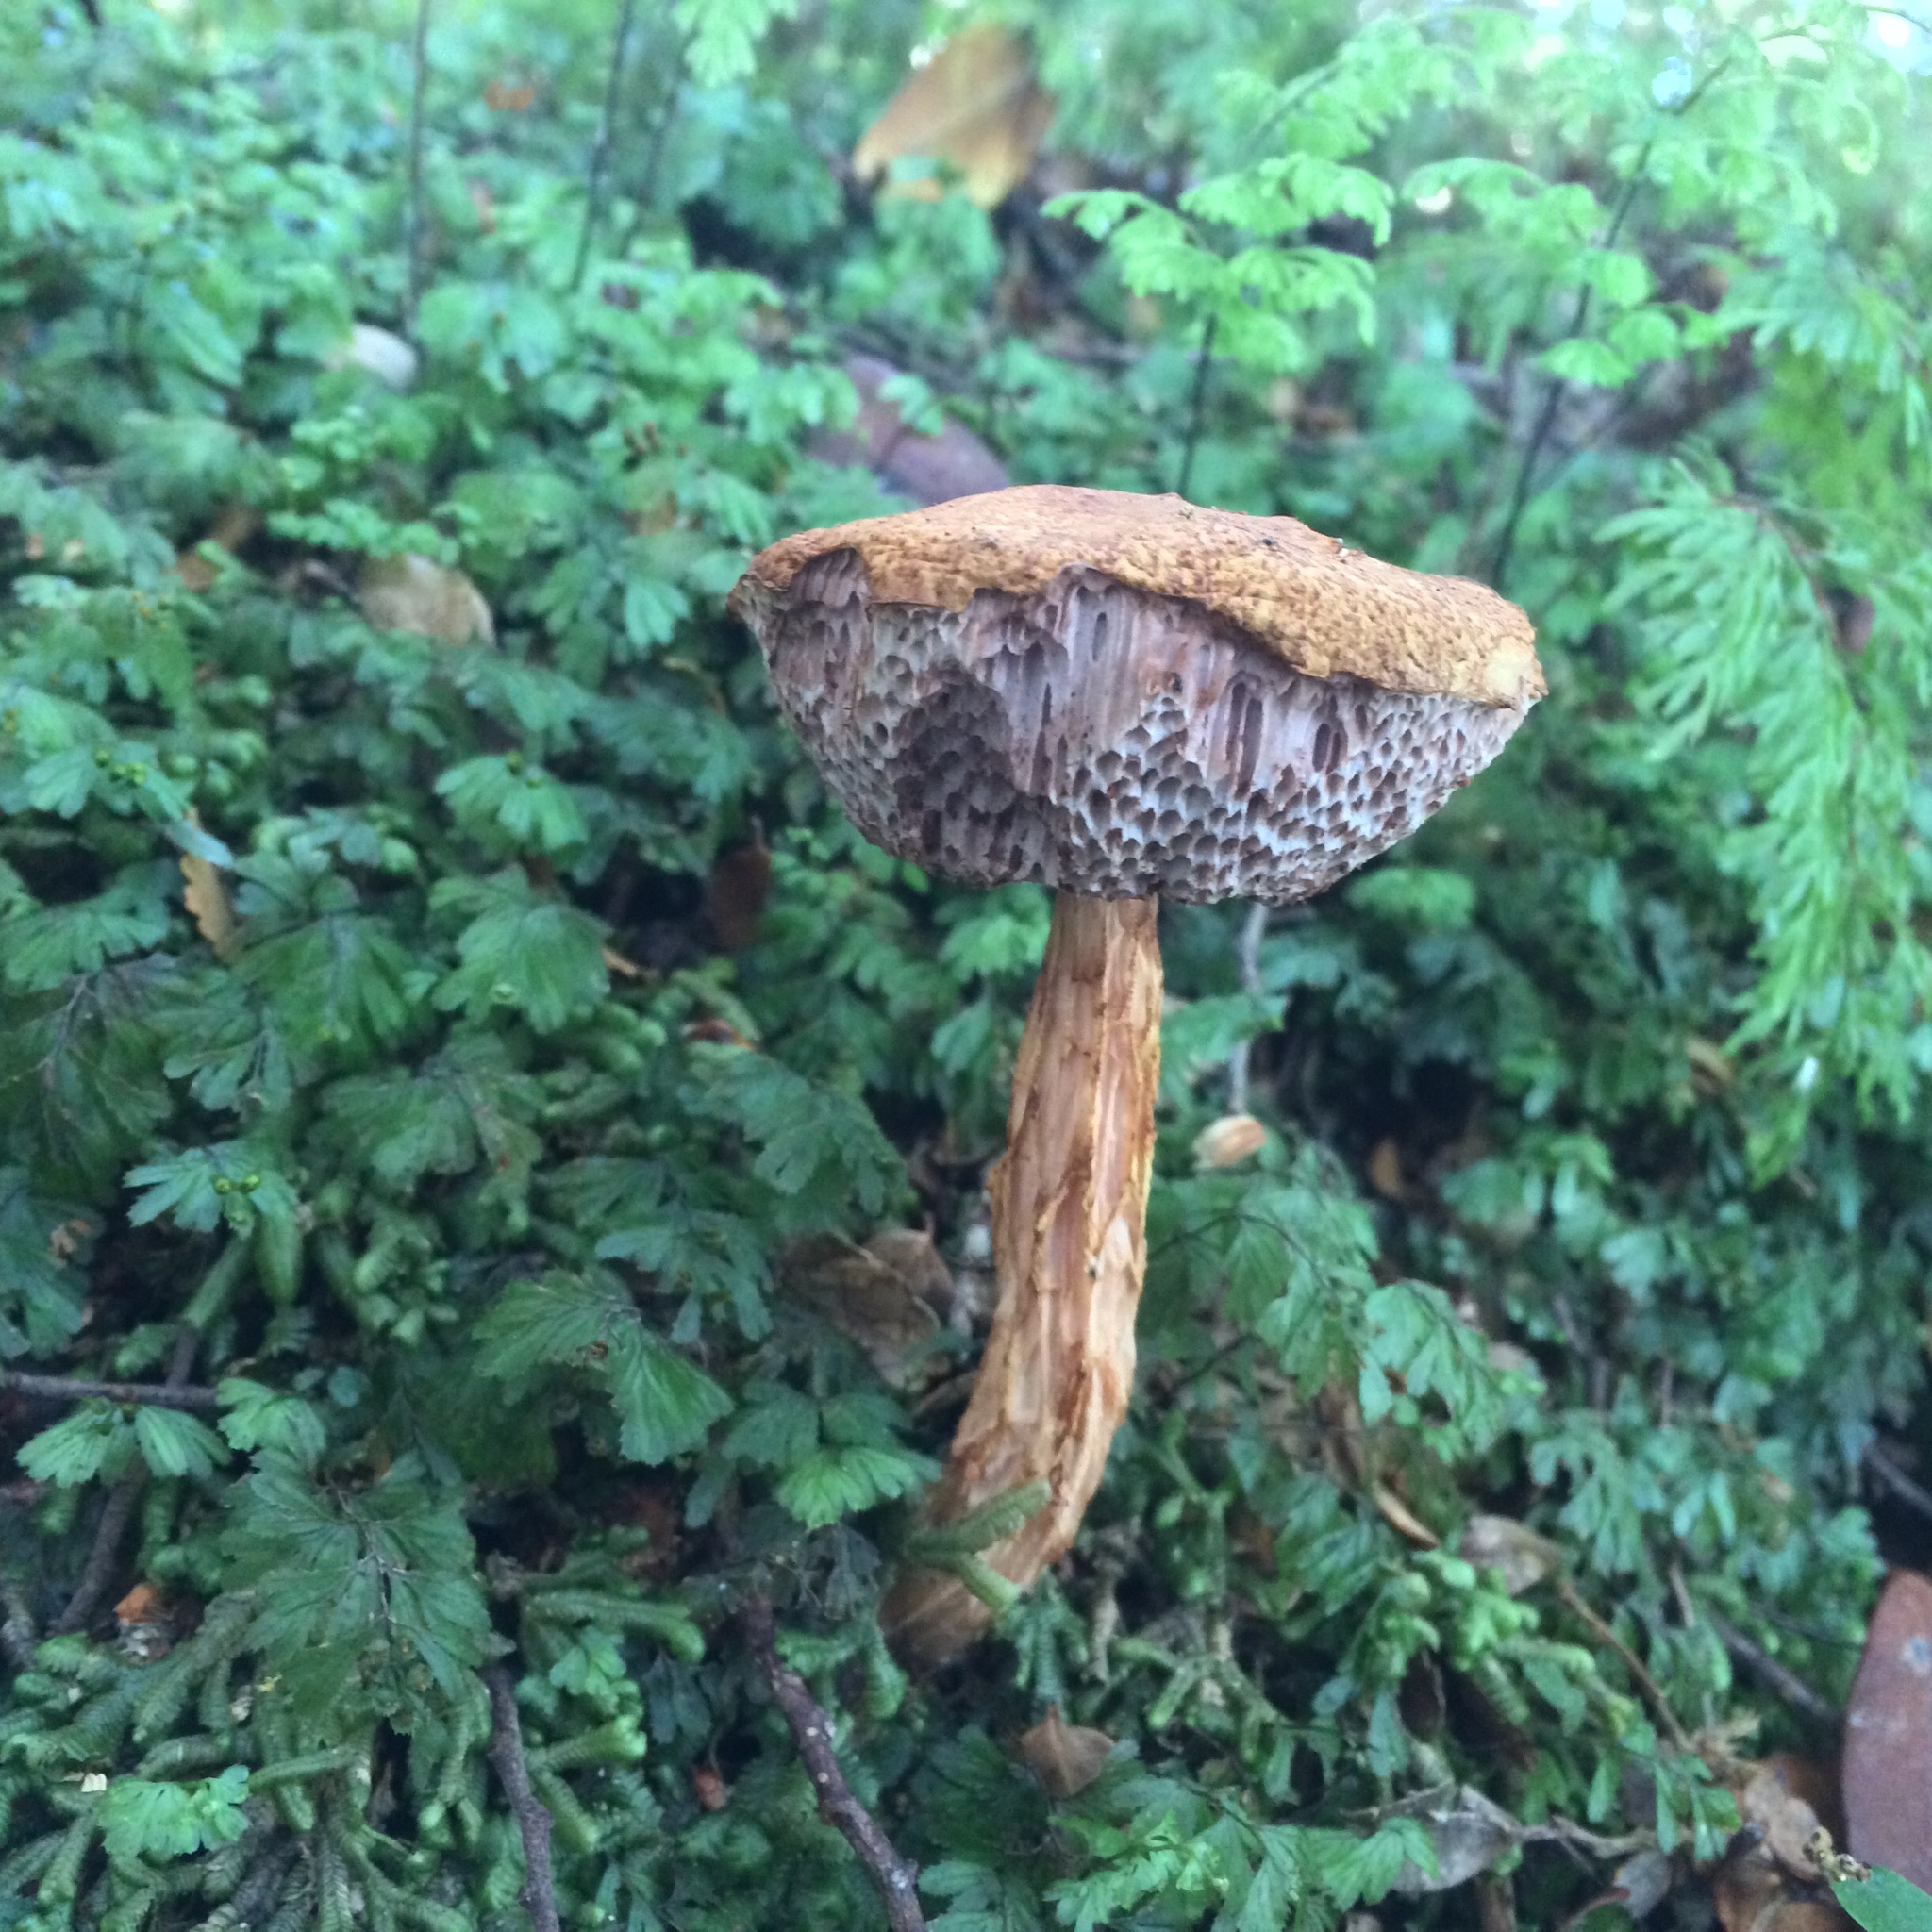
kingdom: Fungi
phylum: Basidiomycota
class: Agaricomycetes
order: Boletales
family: Boletaceae
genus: Austroboletus
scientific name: Austroboletus lacunosus
